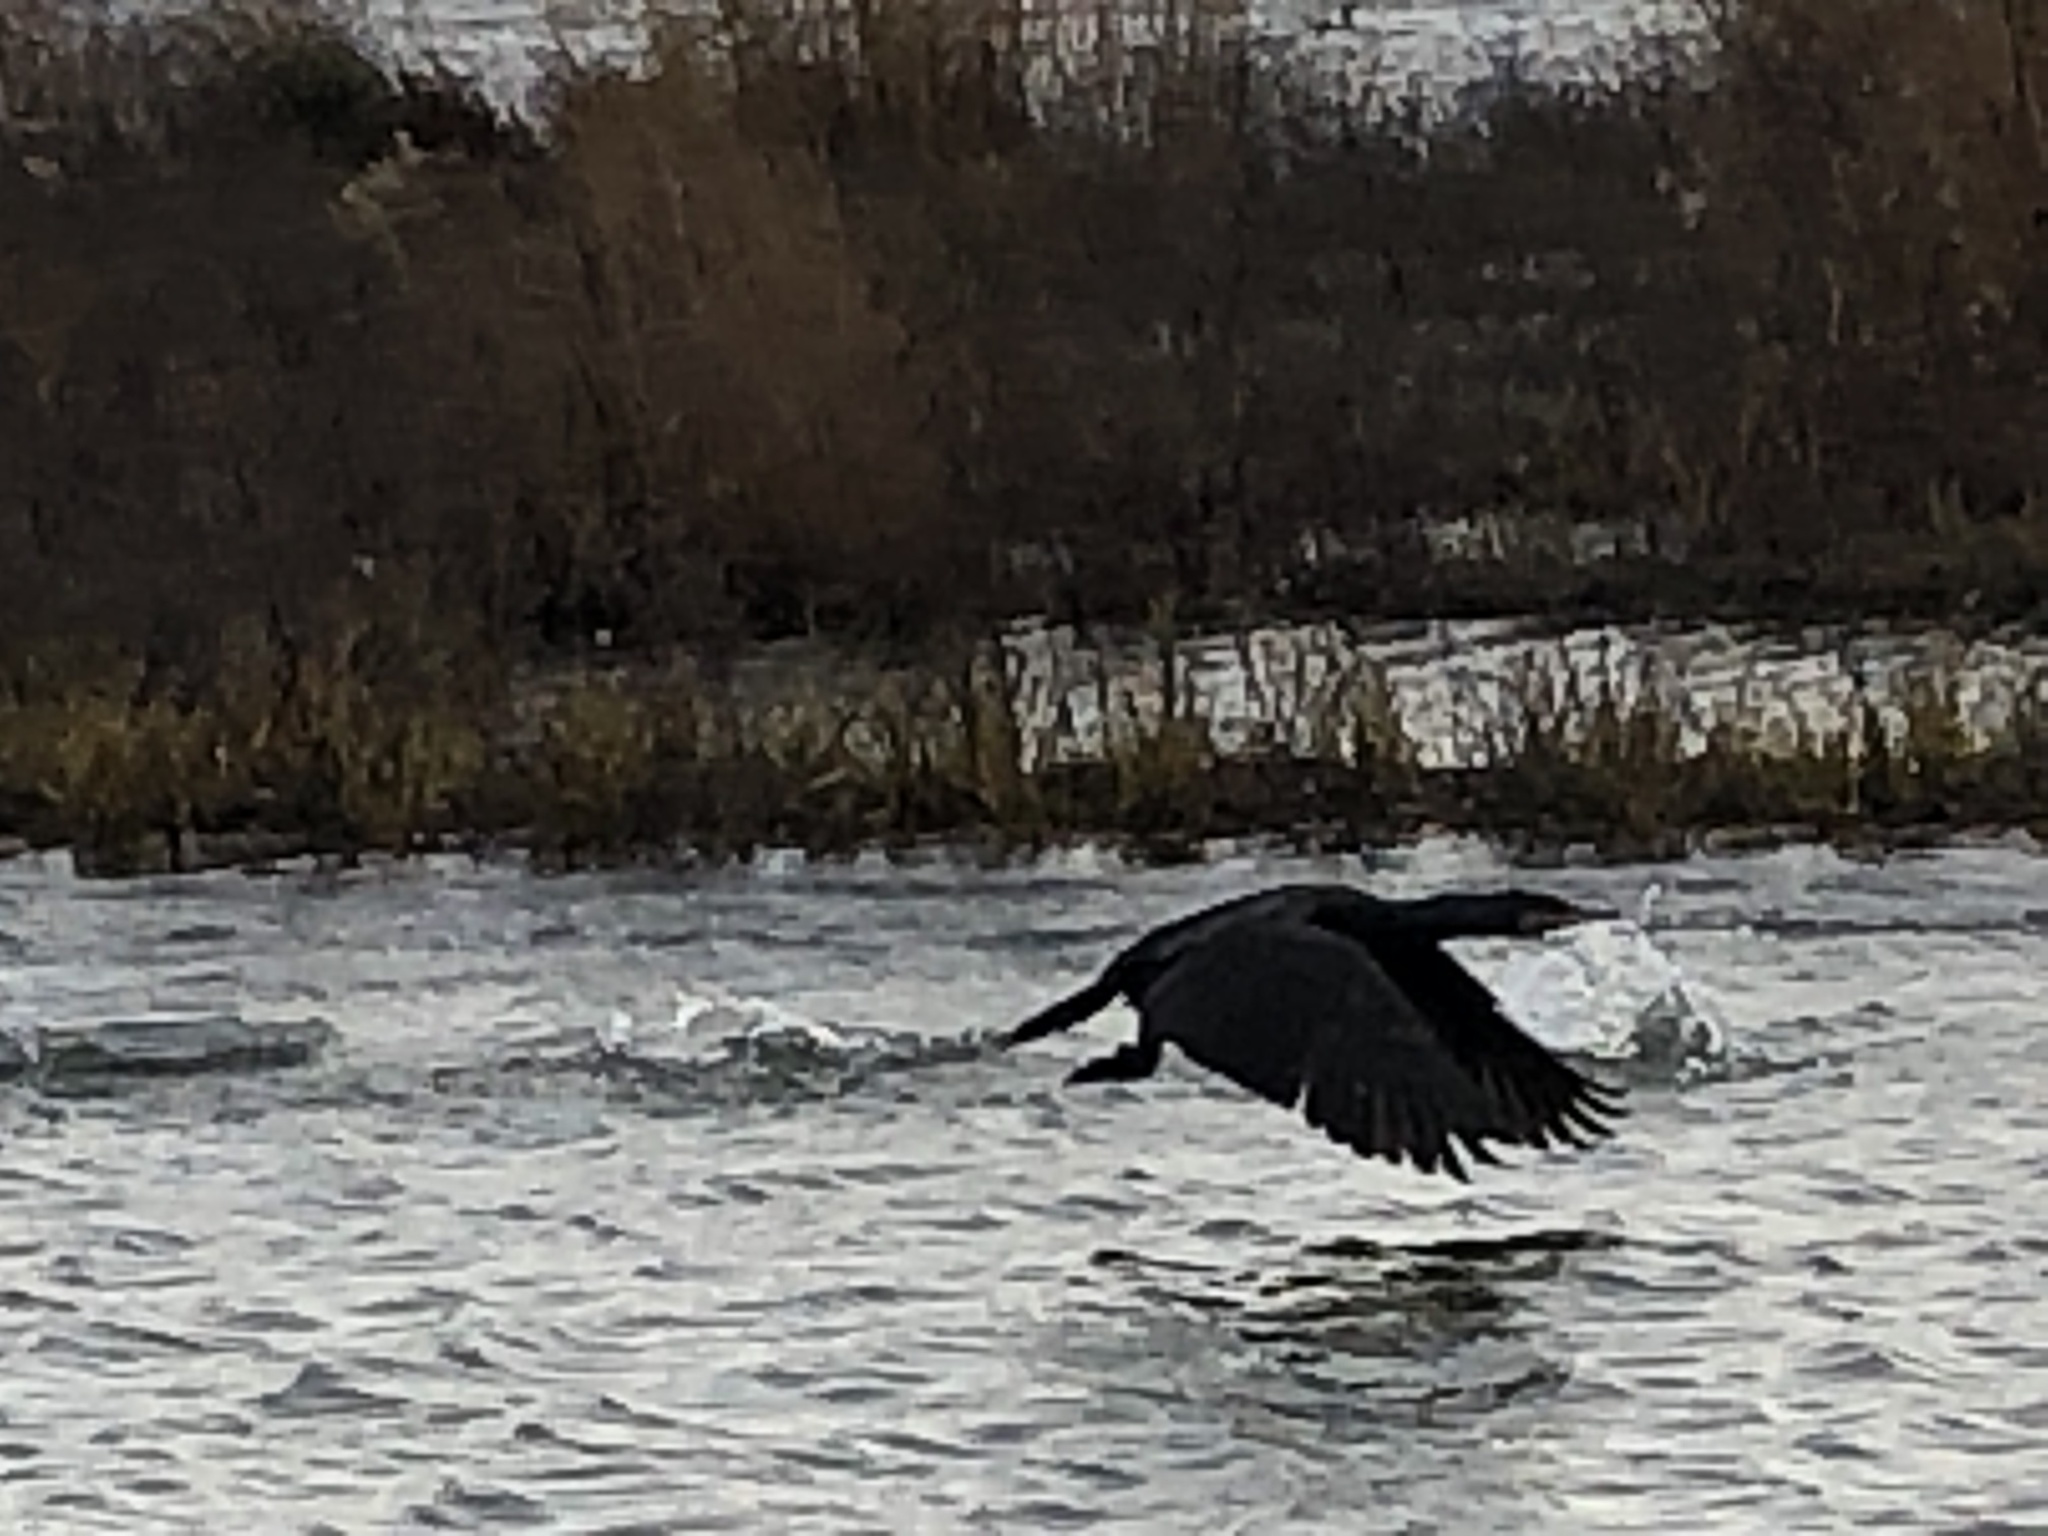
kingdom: Animalia
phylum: Chordata
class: Aves
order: Suliformes
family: Phalacrocoracidae
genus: Phalacrocorax
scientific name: Phalacrocorax carbo
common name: Great cormorant
